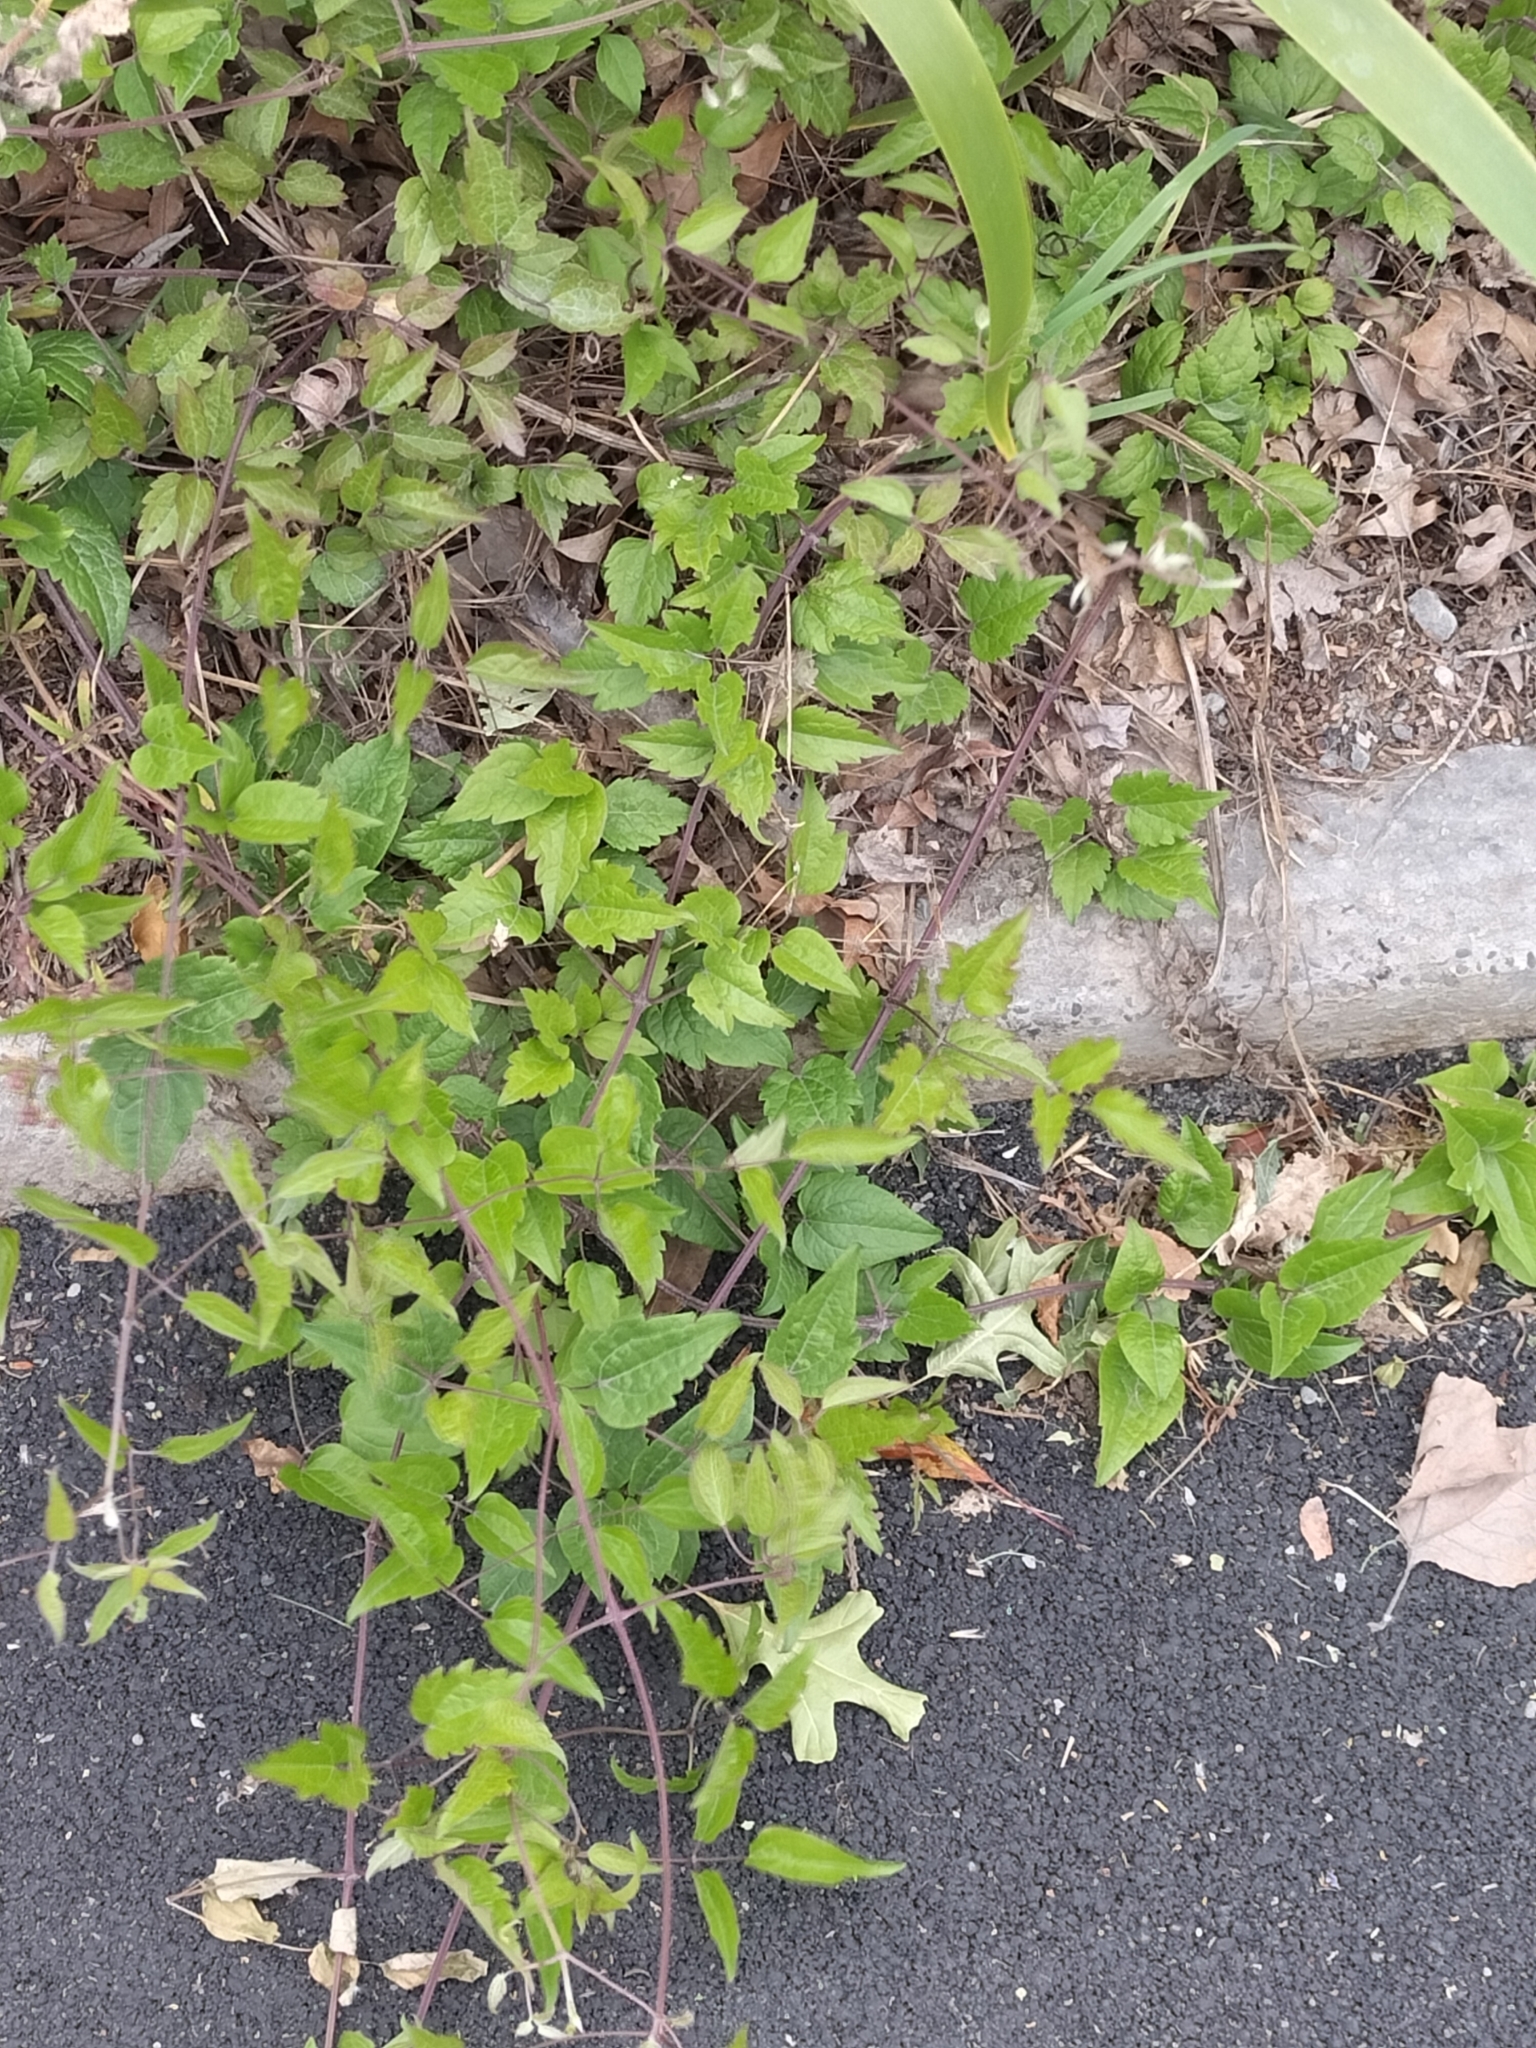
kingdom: Plantae
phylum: Tracheophyta
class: Magnoliopsida
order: Ranunculales
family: Ranunculaceae
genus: Clematis
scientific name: Clematis vitalba
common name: Evergreen clematis
